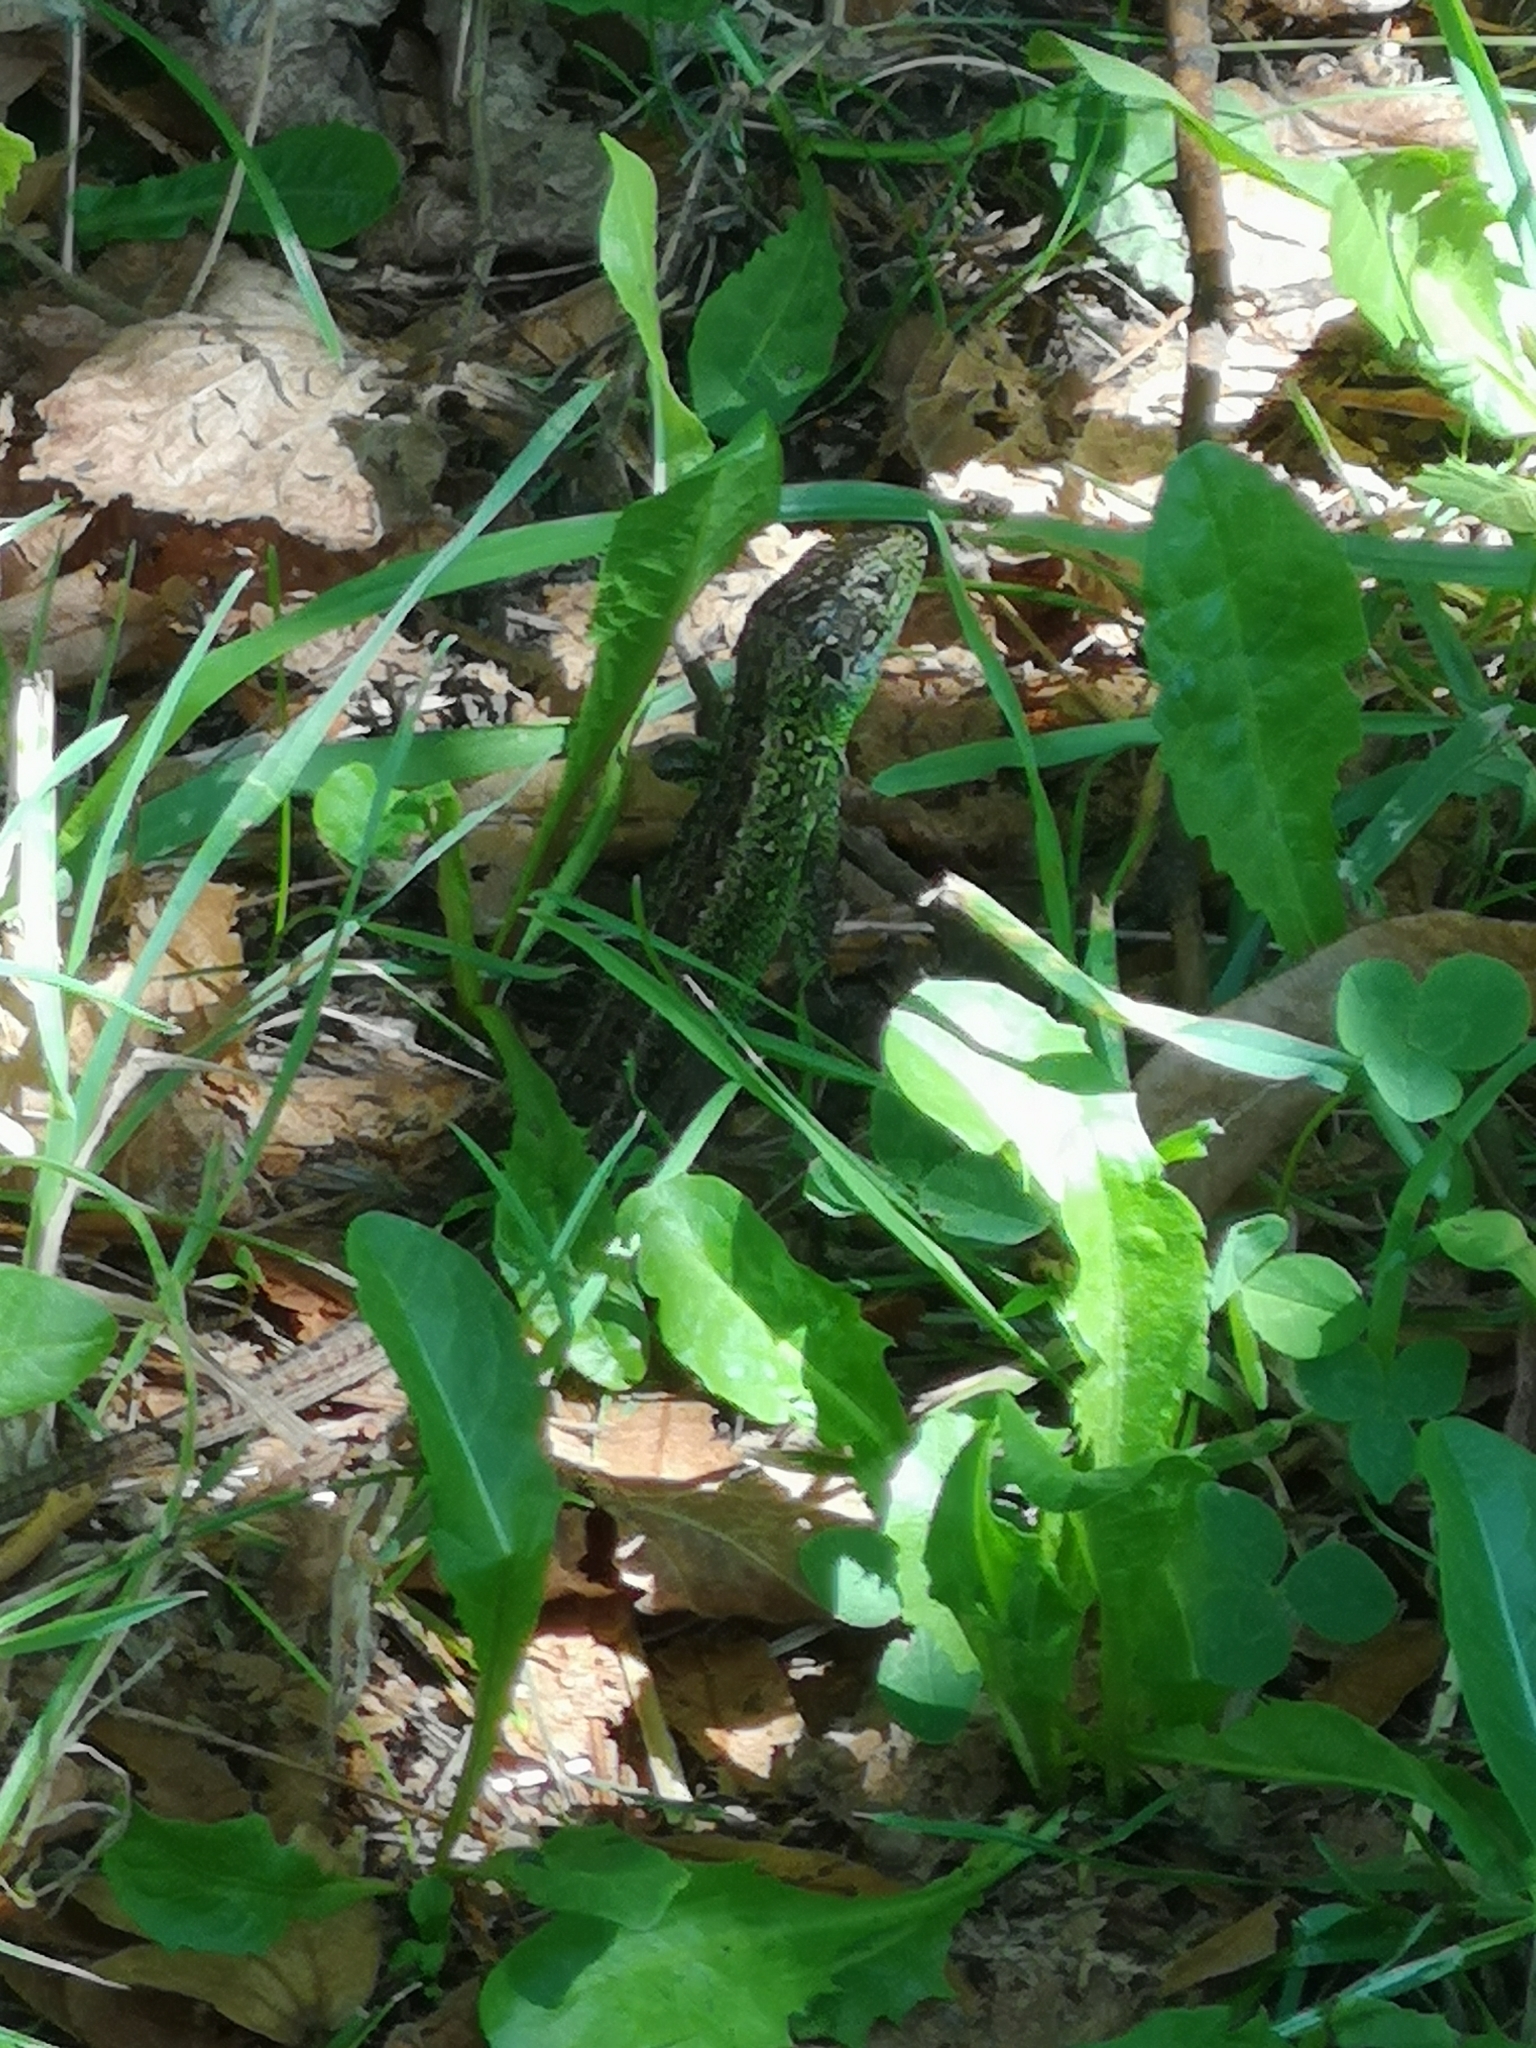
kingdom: Animalia
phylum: Chordata
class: Squamata
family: Lacertidae
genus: Lacerta
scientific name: Lacerta agilis
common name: Sand lizard
